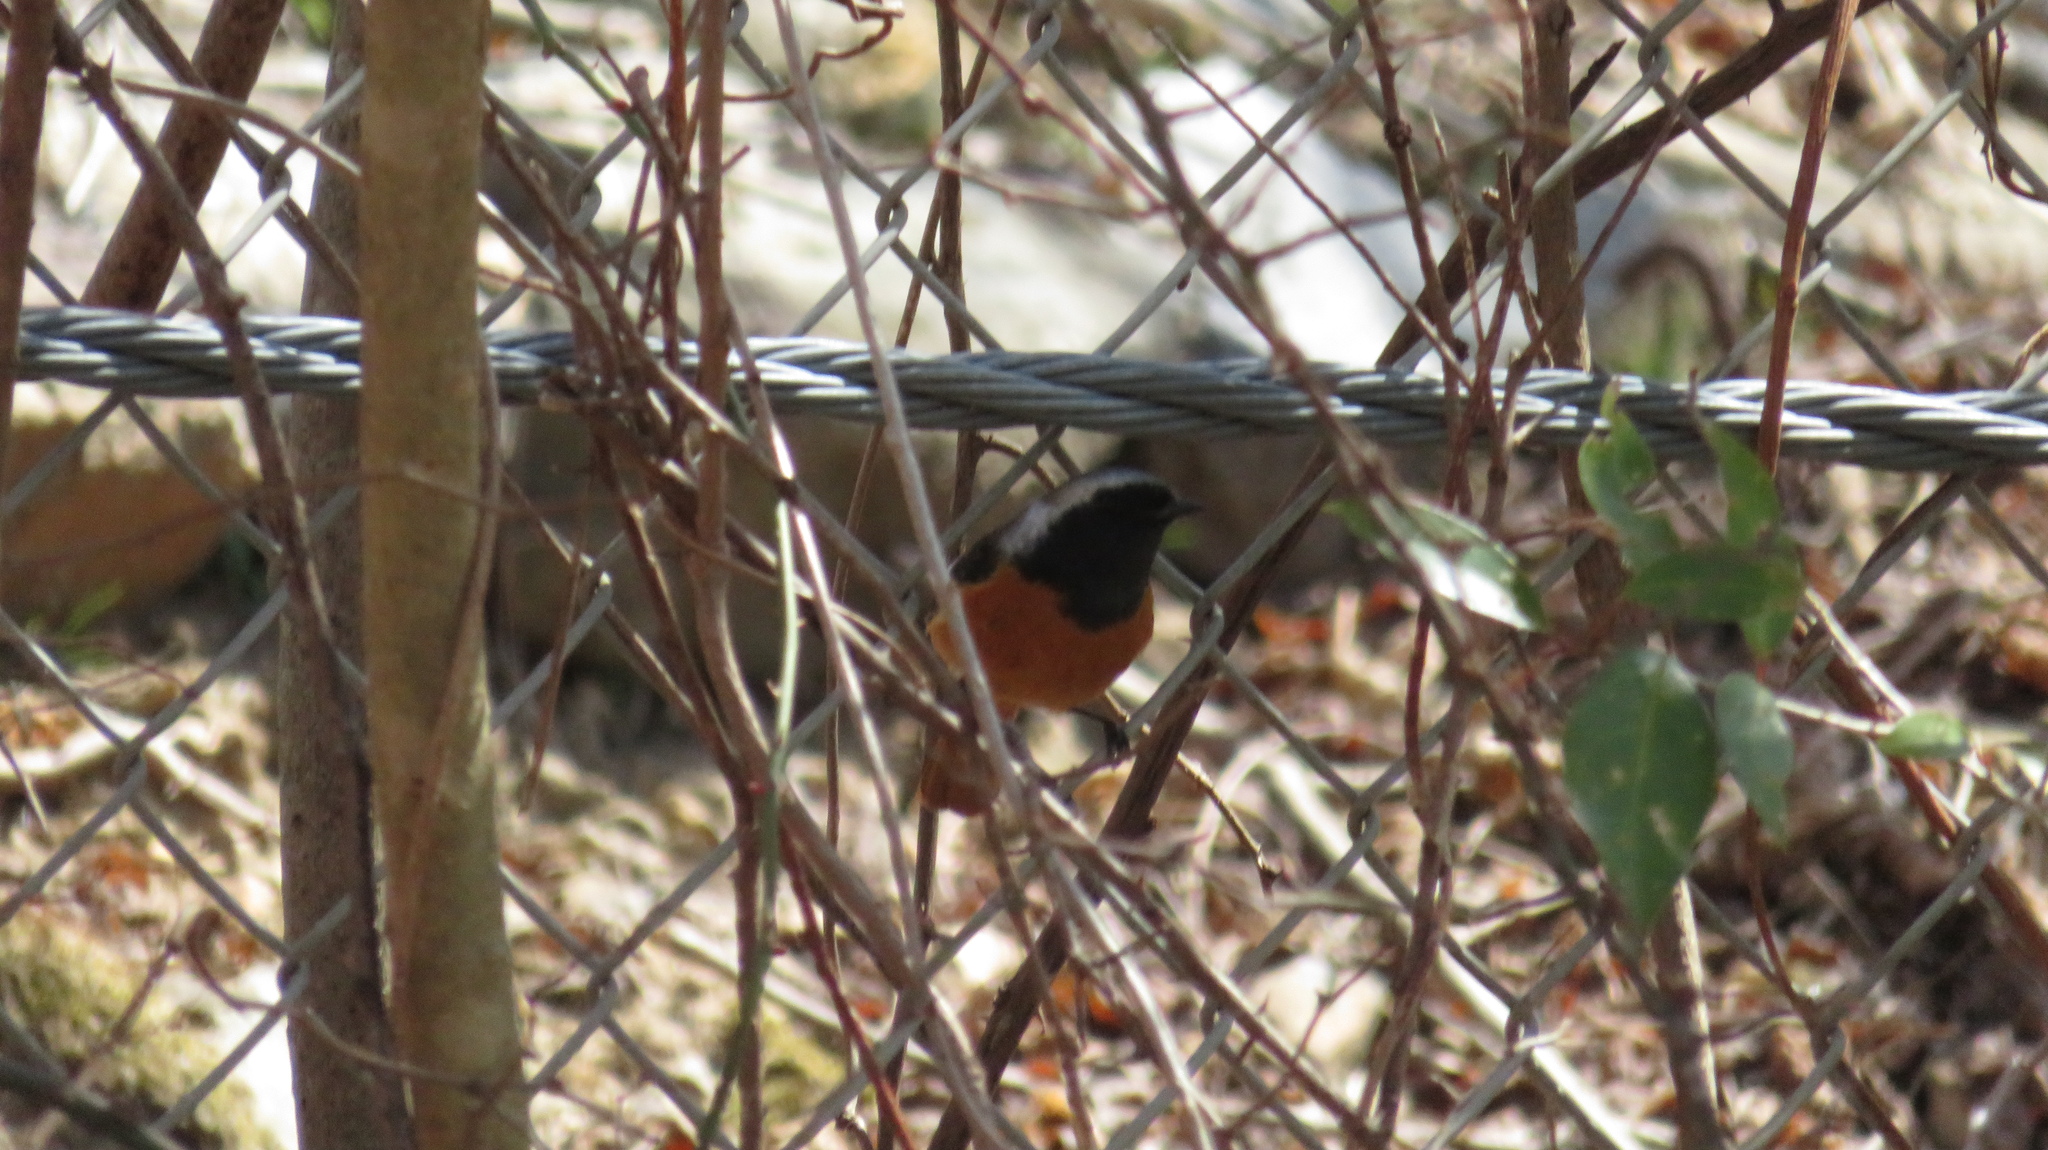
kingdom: Animalia
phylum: Chordata
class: Aves
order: Passeriformes
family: Muscicapidae
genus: Phoenicurus
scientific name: Phoenicurus auroreus
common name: Daurian redstart
